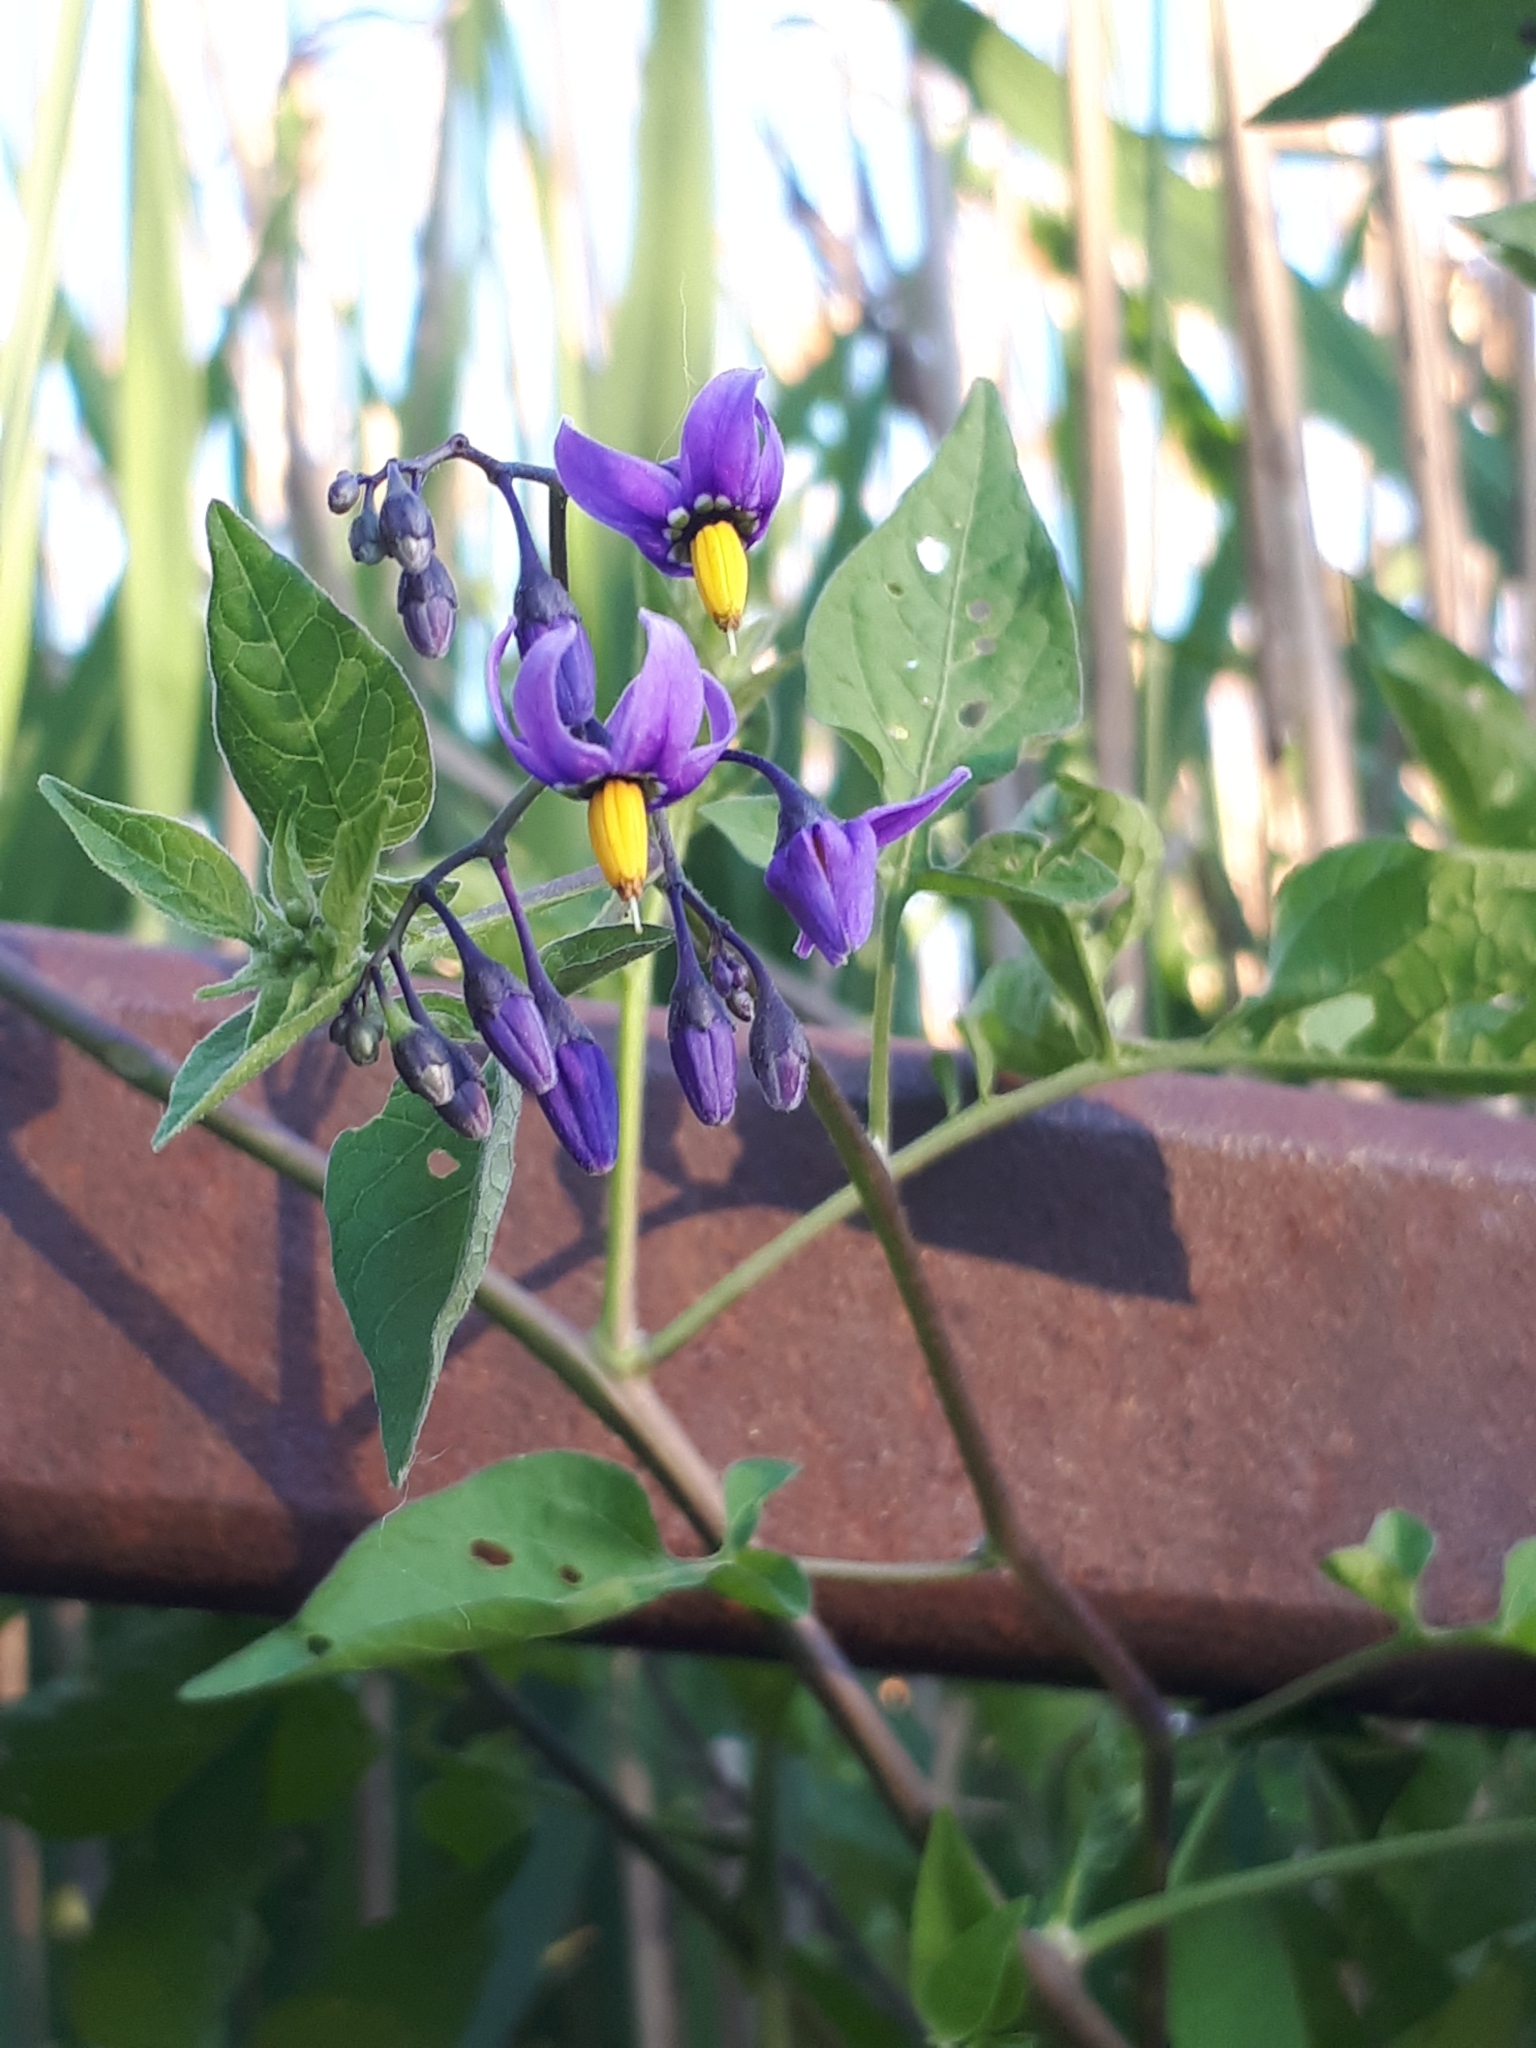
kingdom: Plantae
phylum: Tracheophyta
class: Magnoliopsida
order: Solanales
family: Solanaceae
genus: Solanum
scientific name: Solanum dulcamara
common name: Climbing nightshade
